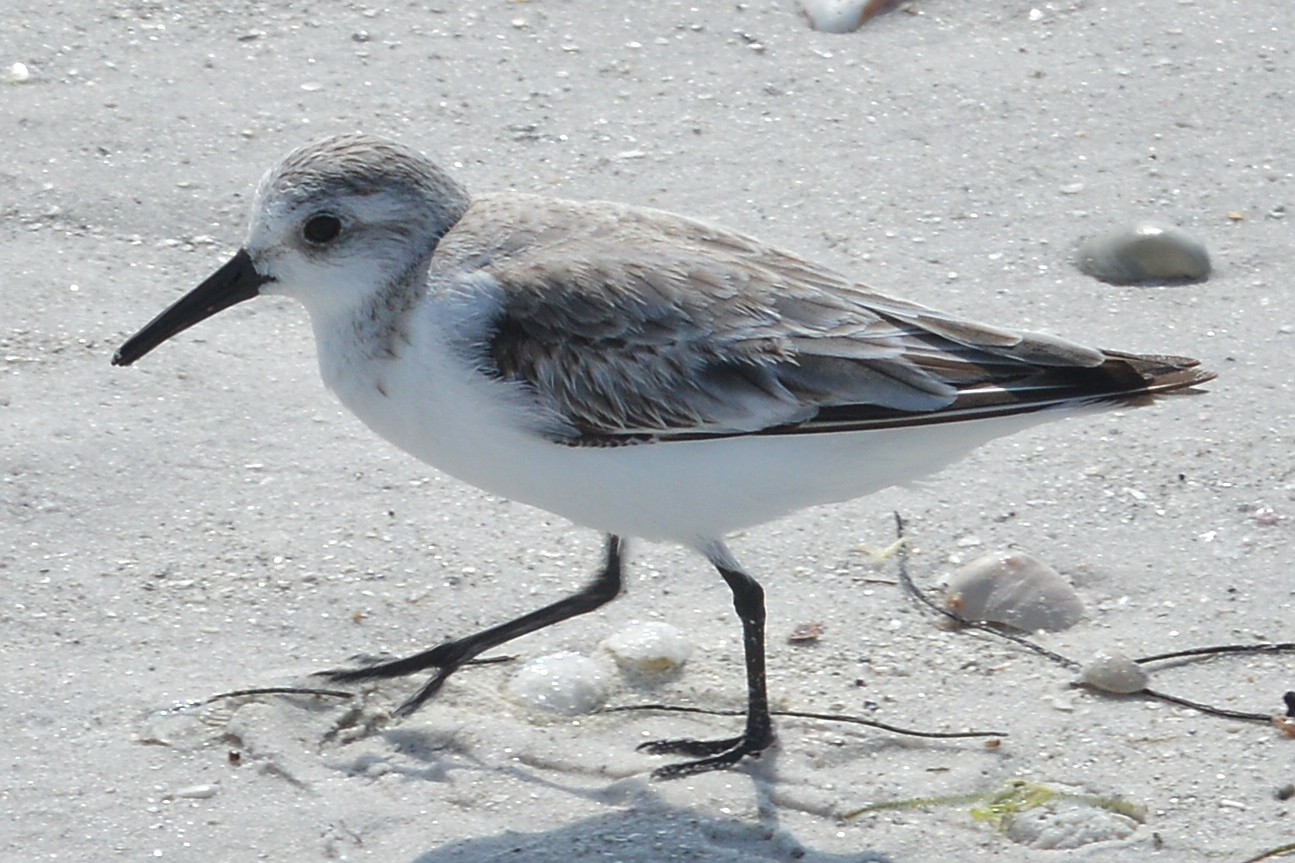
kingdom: Animalia
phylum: Chordata
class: Aves
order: Charadriiformes
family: Scolopacidae
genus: Calidris
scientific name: Calidris alba
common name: Sanderling
